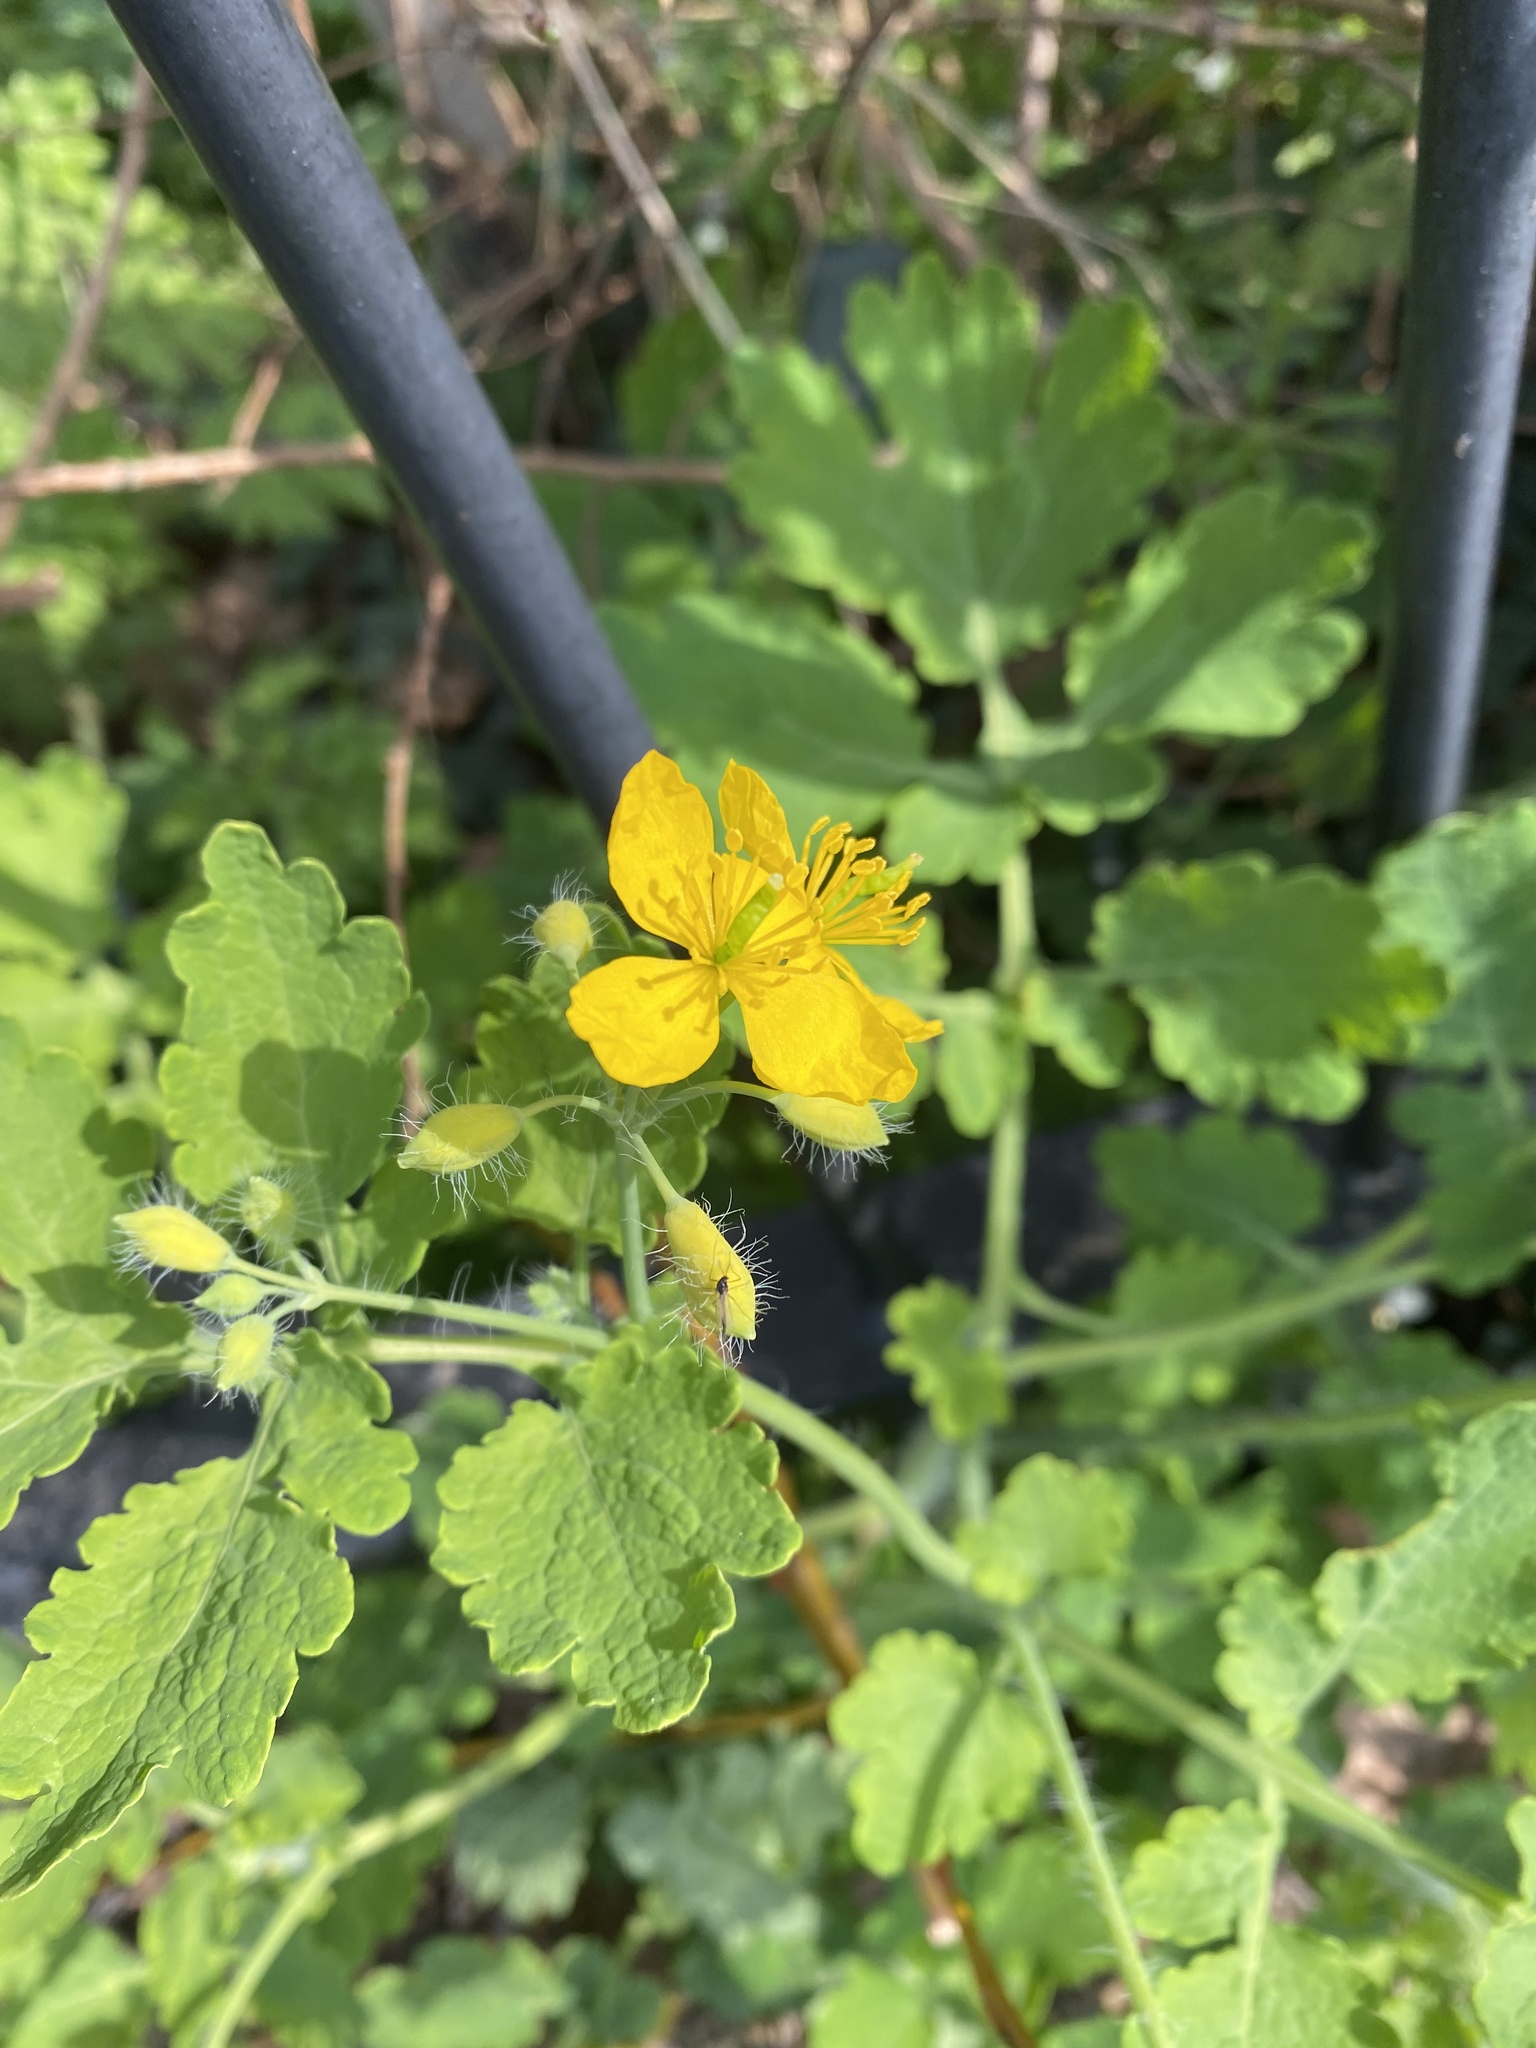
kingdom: Plantae
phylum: Tracheophyta
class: Magnoliopsida
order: Ranunculales
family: Papaveraceae
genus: Chelidonium
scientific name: Chelidonium majus
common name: Greater celandine
